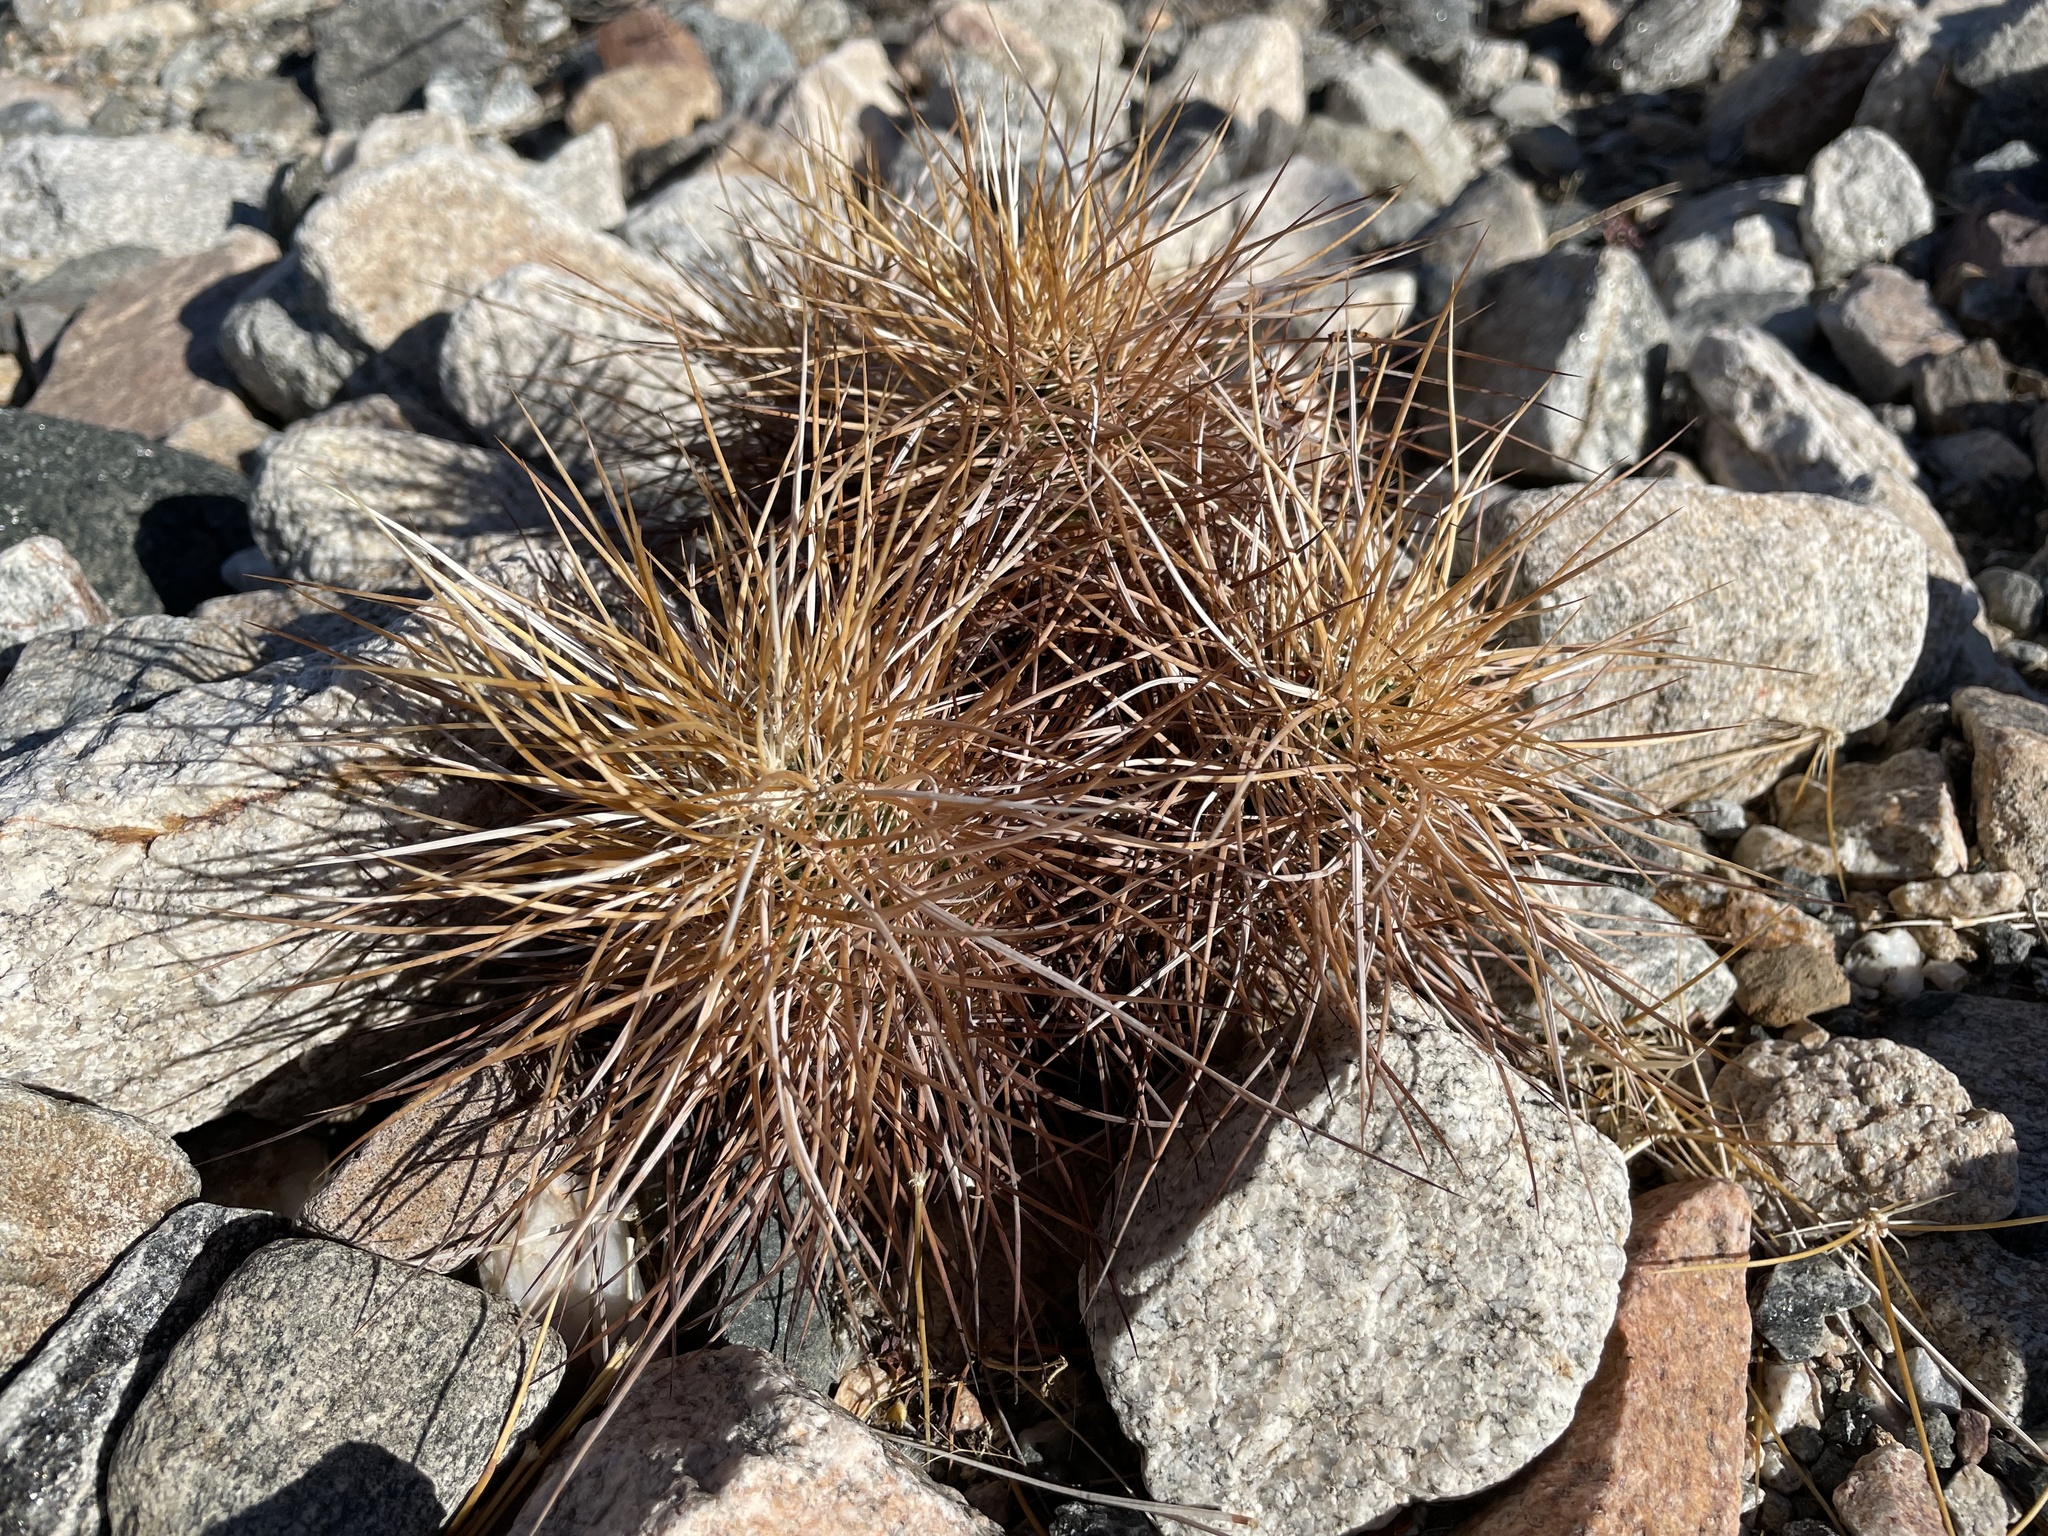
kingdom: Plantae
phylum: Tracheophyta
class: Magnoliopsida
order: Caryophyllales
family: Cactaceae
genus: Echinocereus
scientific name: Echinocereus engelmannii
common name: Engelmann's hedgehog cactus
